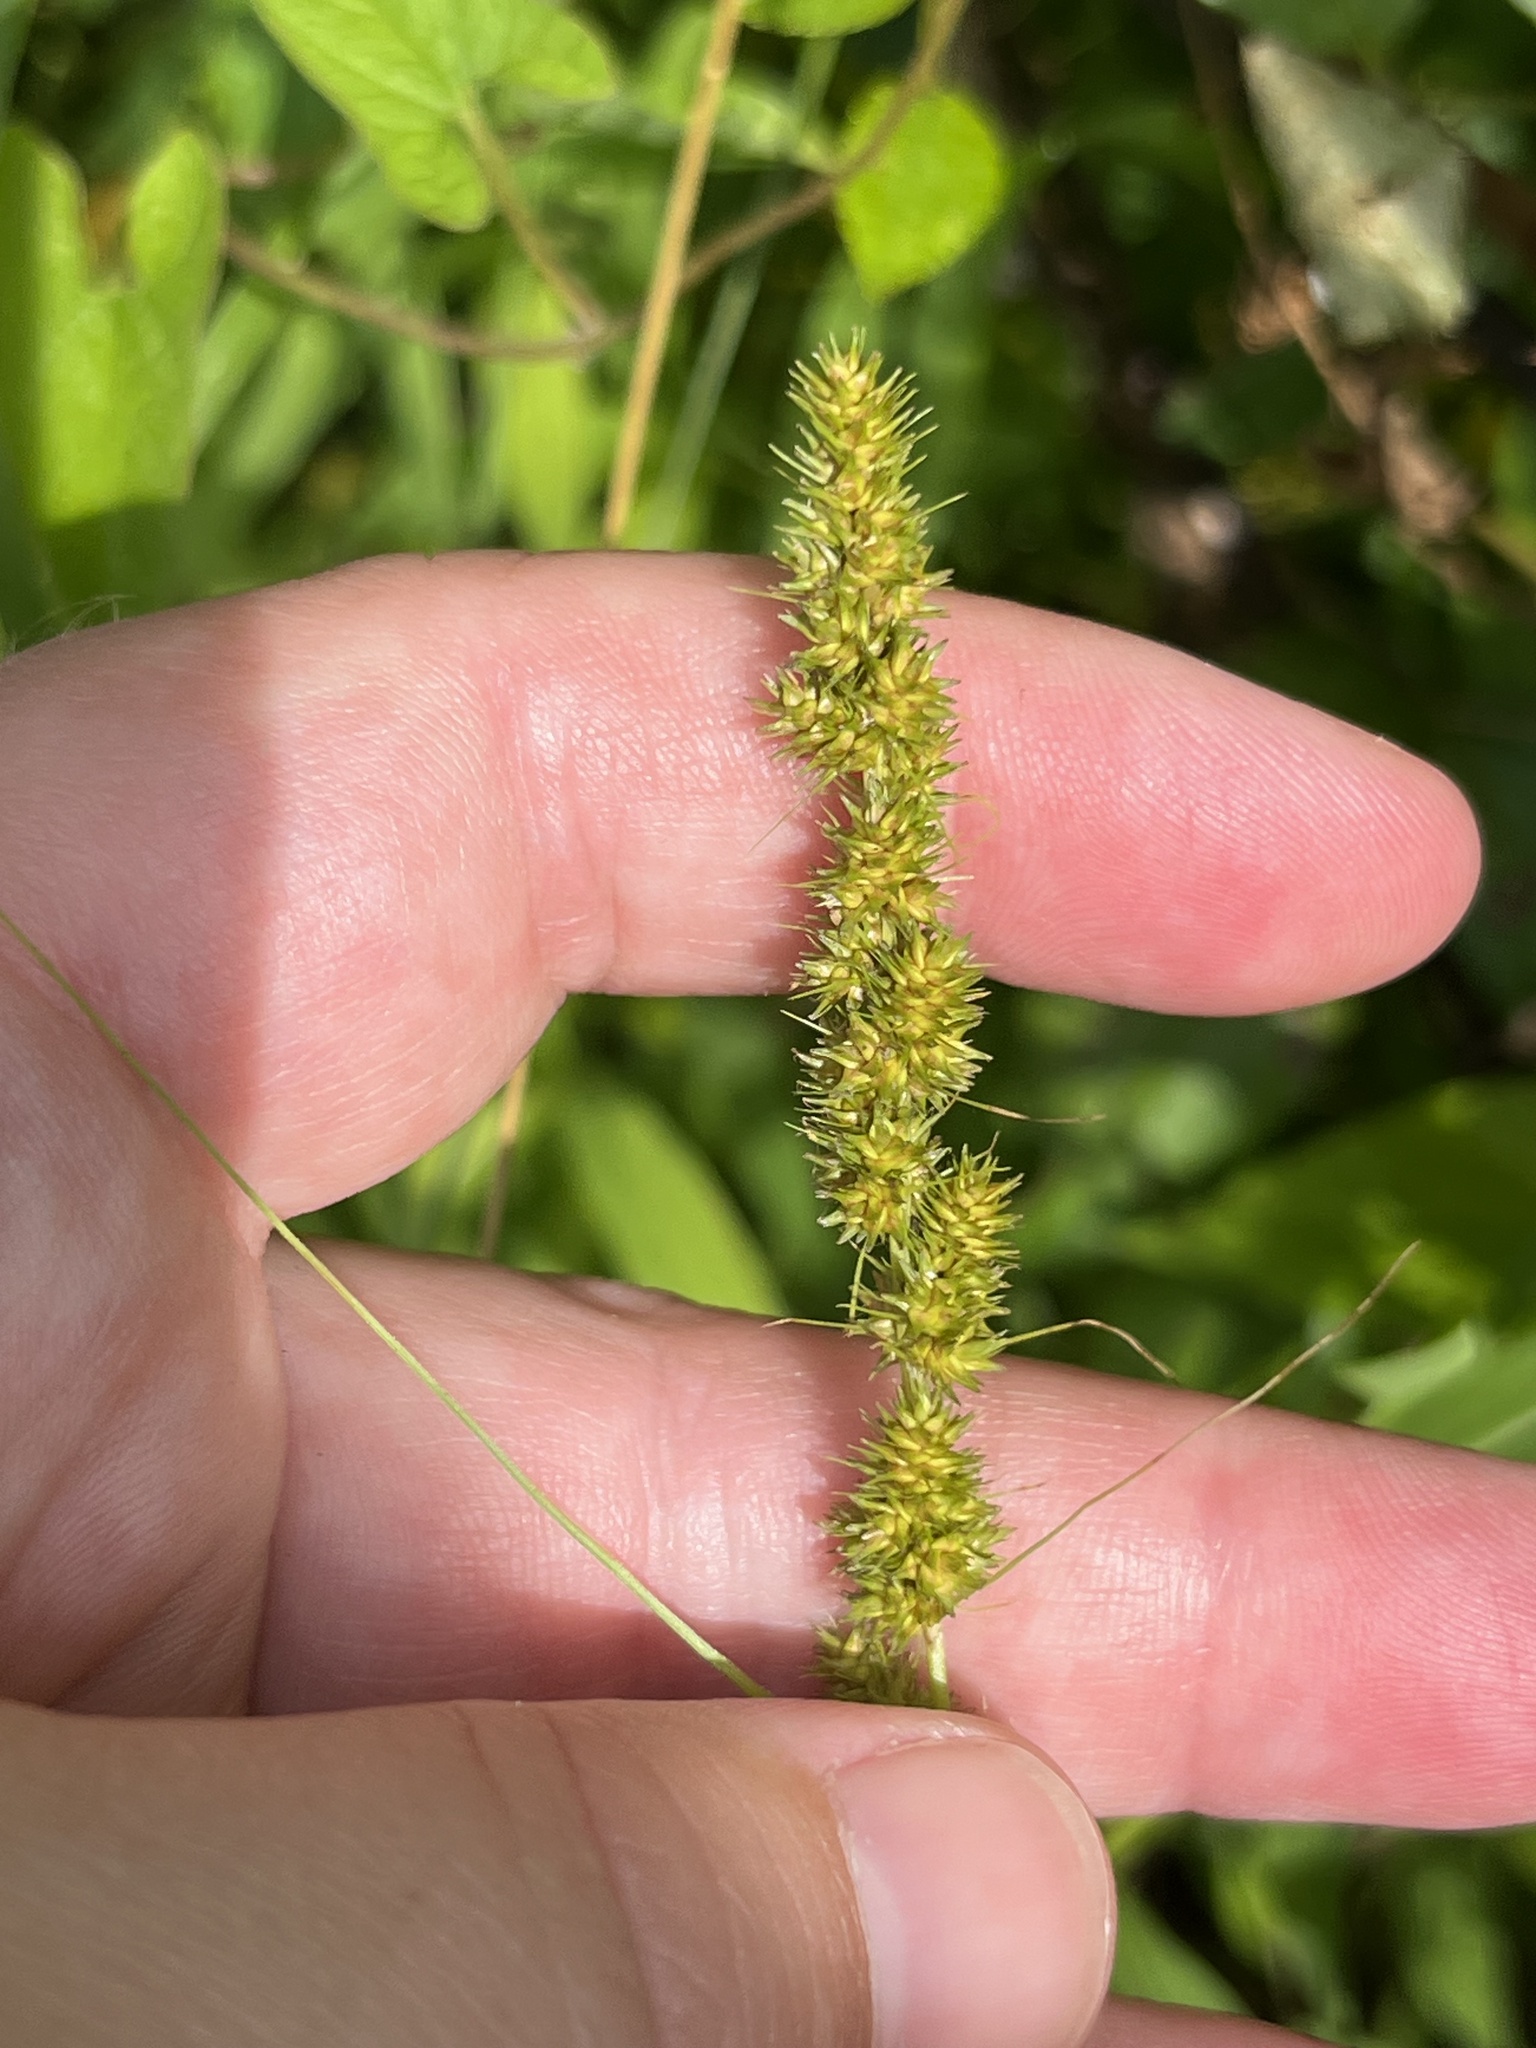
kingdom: Plantae
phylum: Tracheophyta
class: Liliopsida
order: Poales
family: Cyperaceae
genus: Carex
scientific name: Carex vulpinoidea
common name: American fox-sedge
